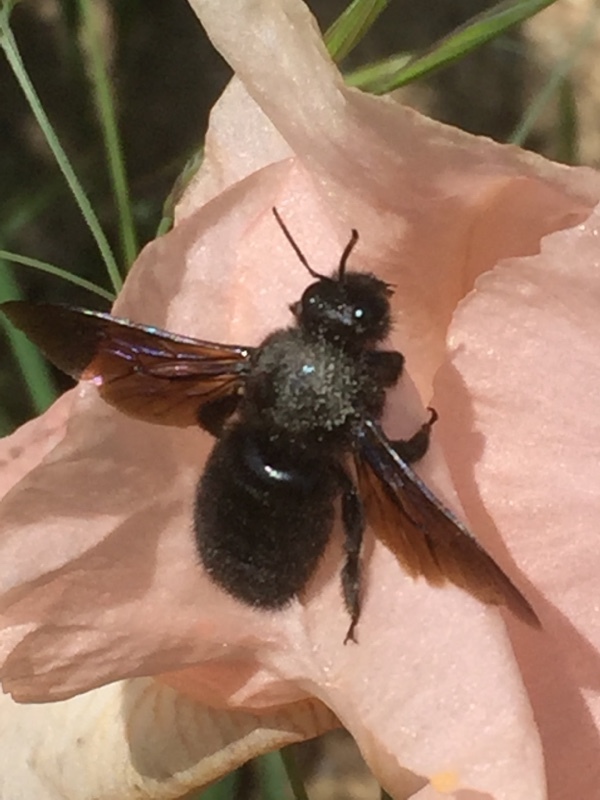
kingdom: Animalia
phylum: Arthropoda
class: Insecta
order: Hymenoptera
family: Apidae
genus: Xylocopa
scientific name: Xylocopa violacea
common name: Violet carpenter bee
